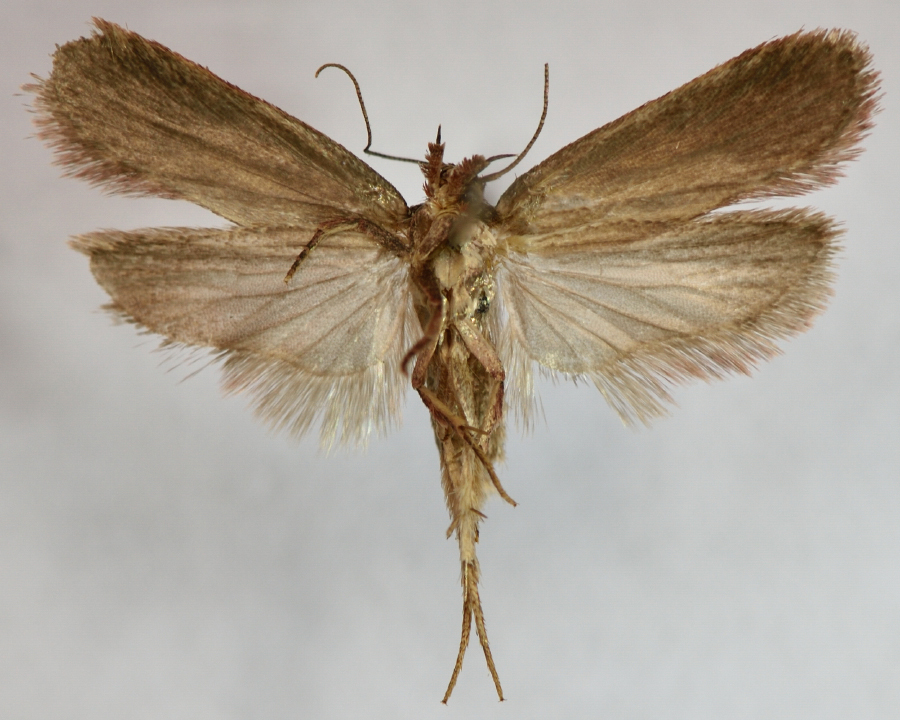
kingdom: Animalia
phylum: Arthropoda
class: Insecta
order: Lepidoptera
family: Depressariidae
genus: Depressaria
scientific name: Depressaria olerella
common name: Yarrow flat-body
